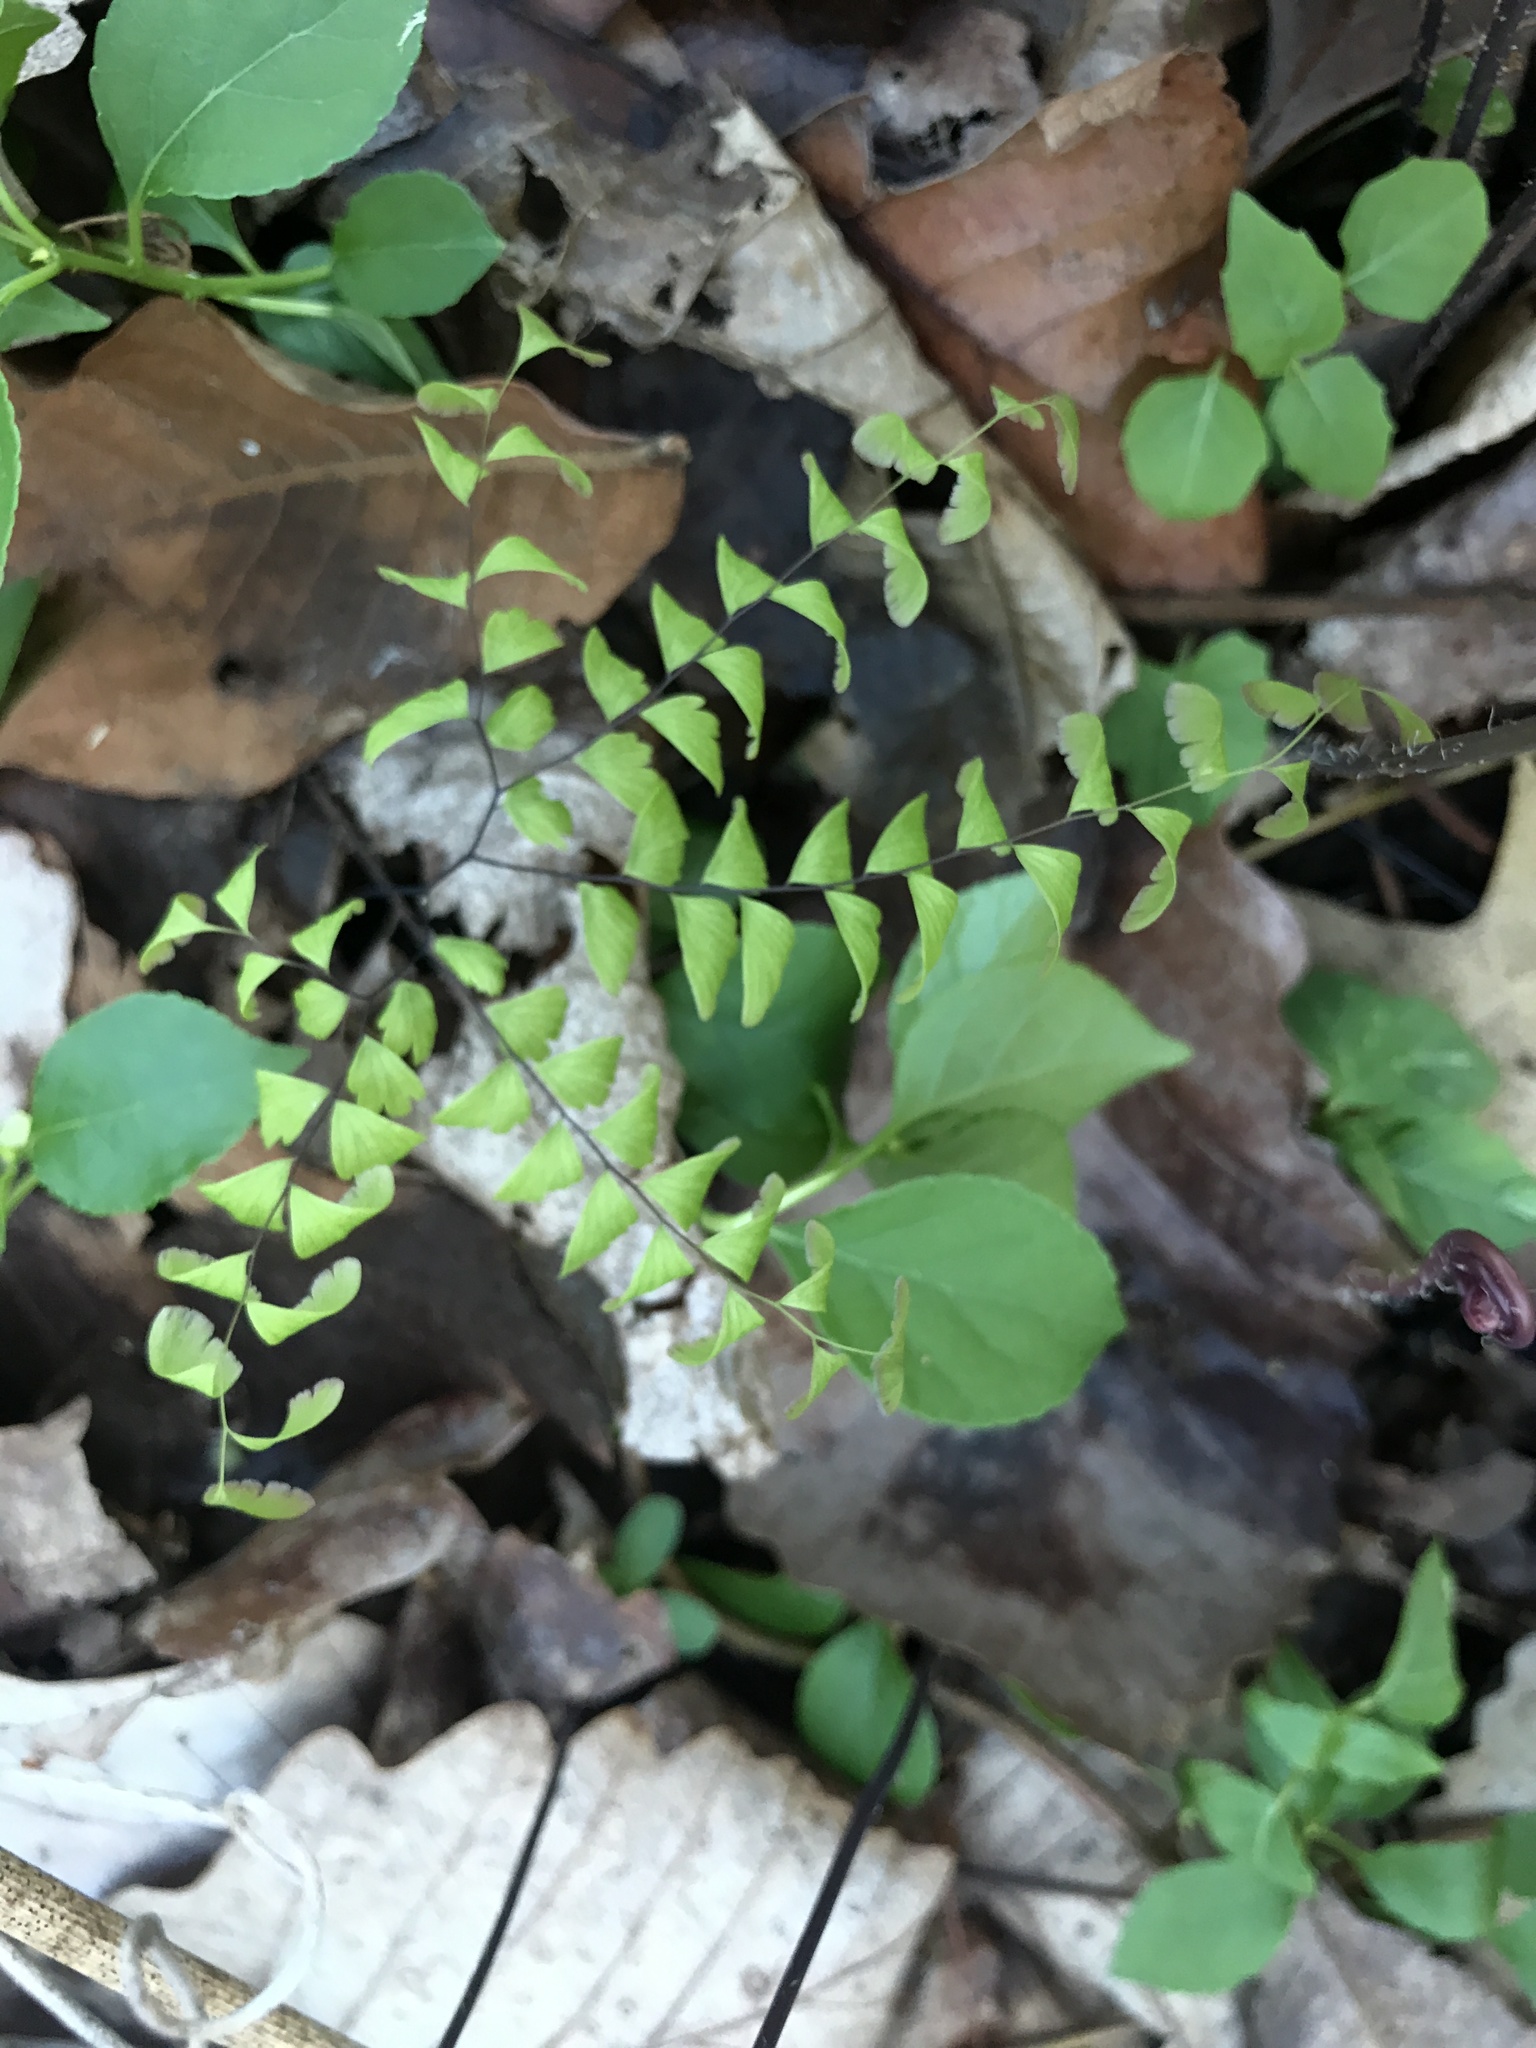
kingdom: Plantae
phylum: Tracheophyta
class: Polypodiopsida
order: Polypodiales
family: Pteridaceae
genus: Adiantum
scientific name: Adiantum pedatum
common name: Five-finger fern
